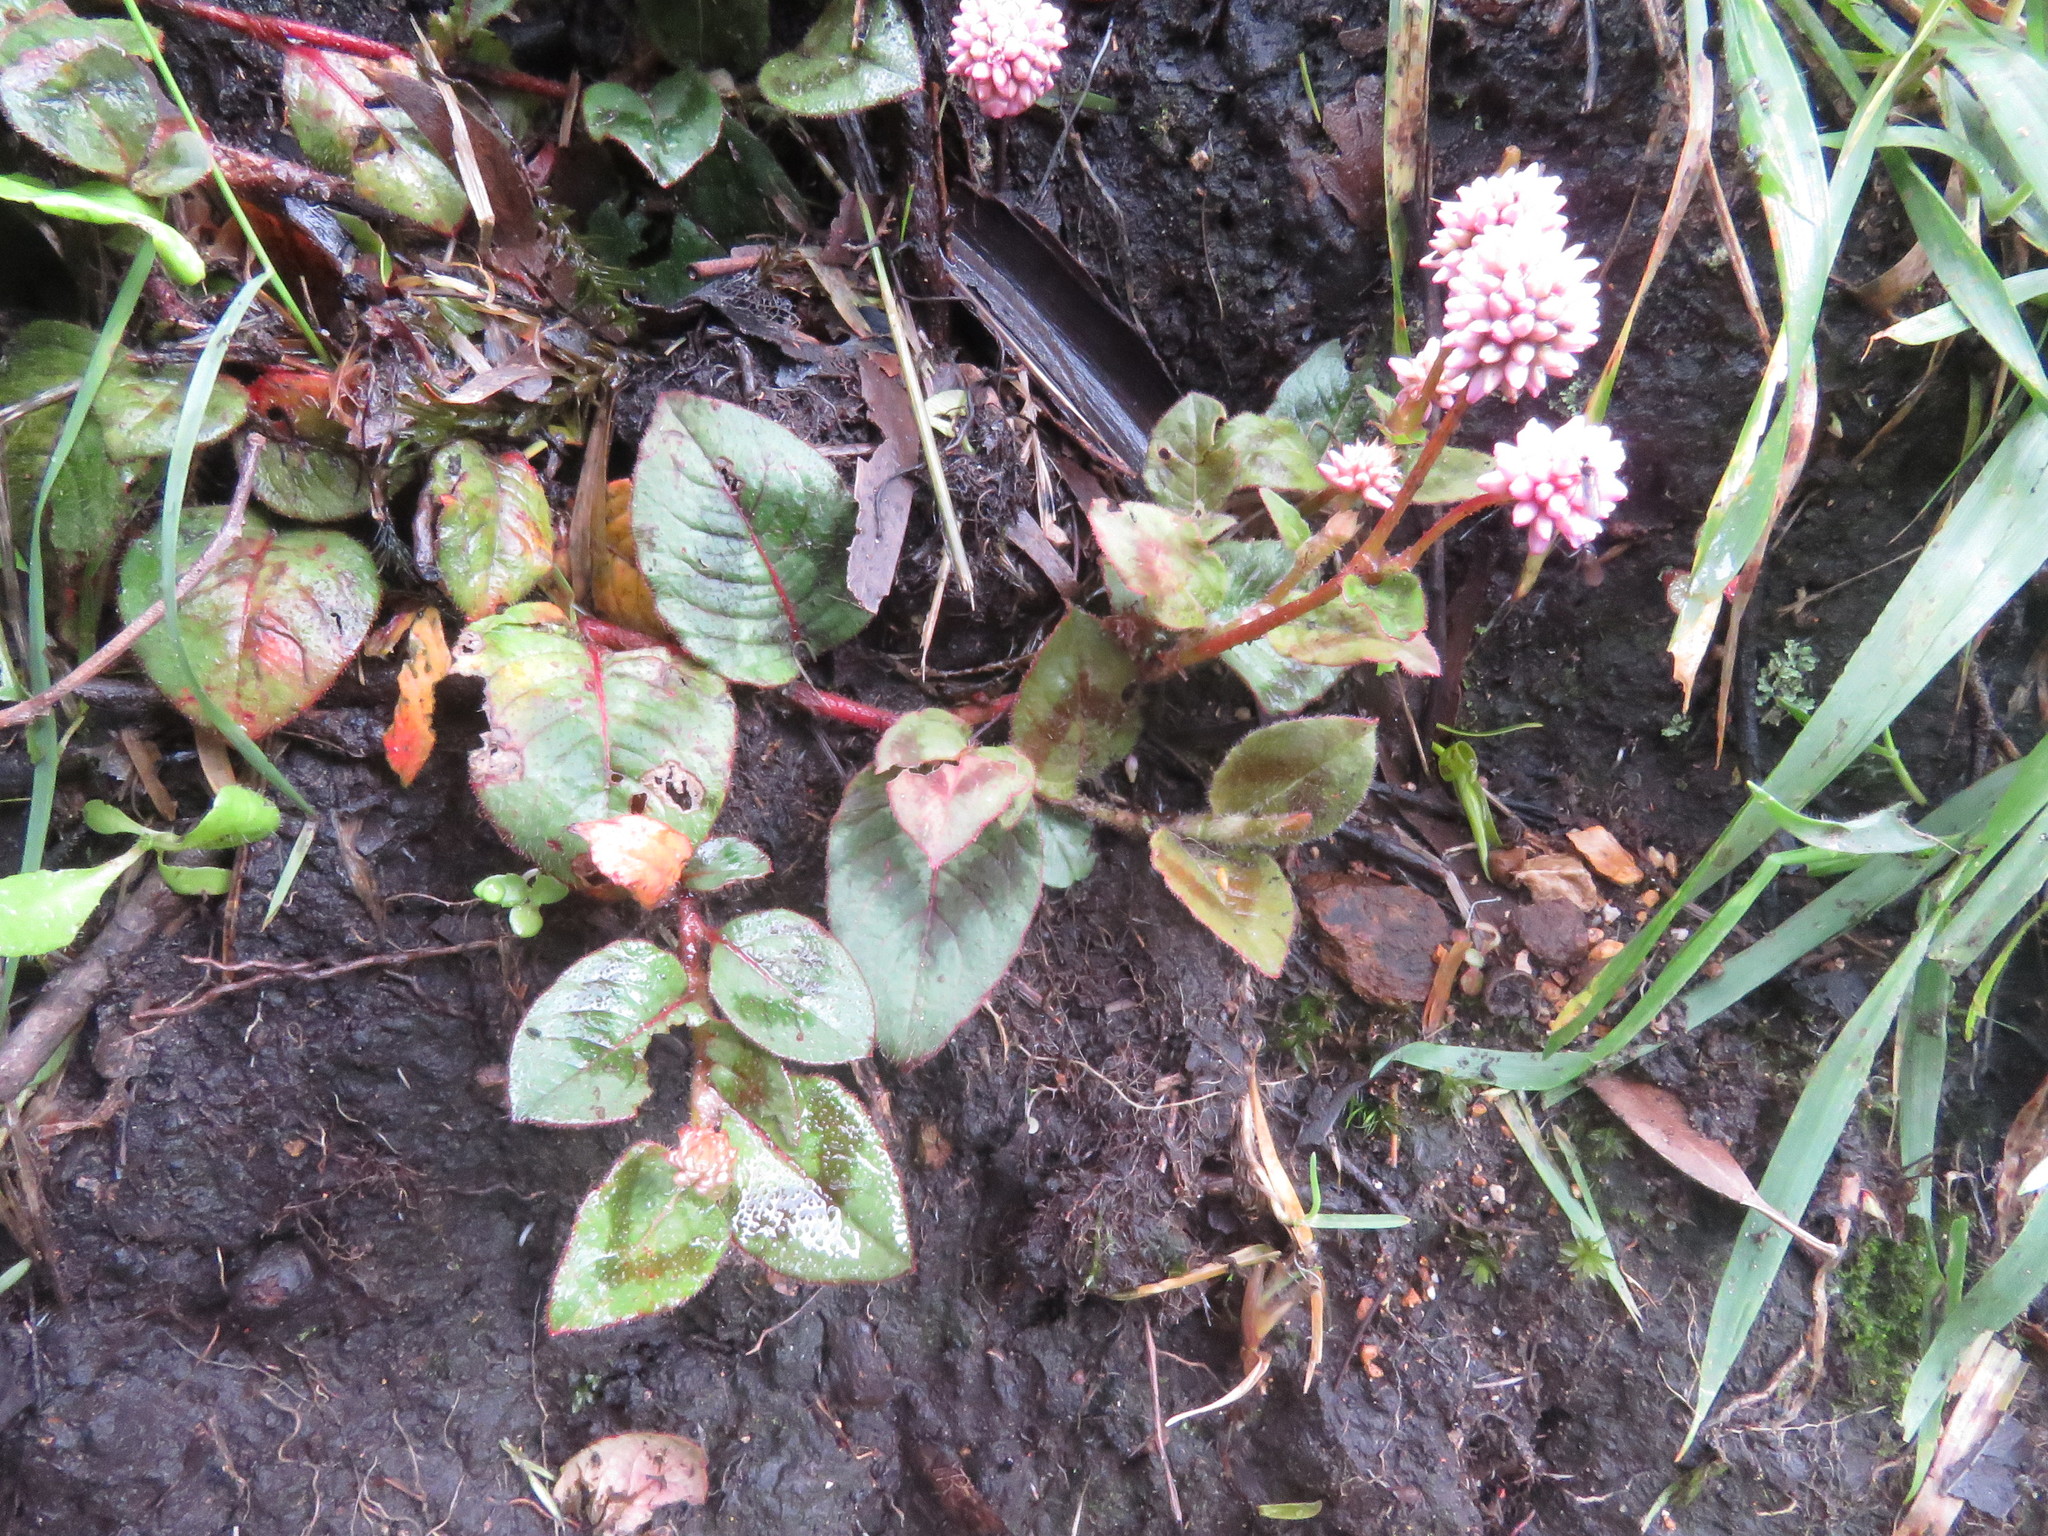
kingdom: Plantae
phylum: Tracheophyta
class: Magnoliopsida
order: Caryophyllales
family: Polygonaceae
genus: Persicaria
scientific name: Persicaria capitata
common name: Pinkhead smartweed
